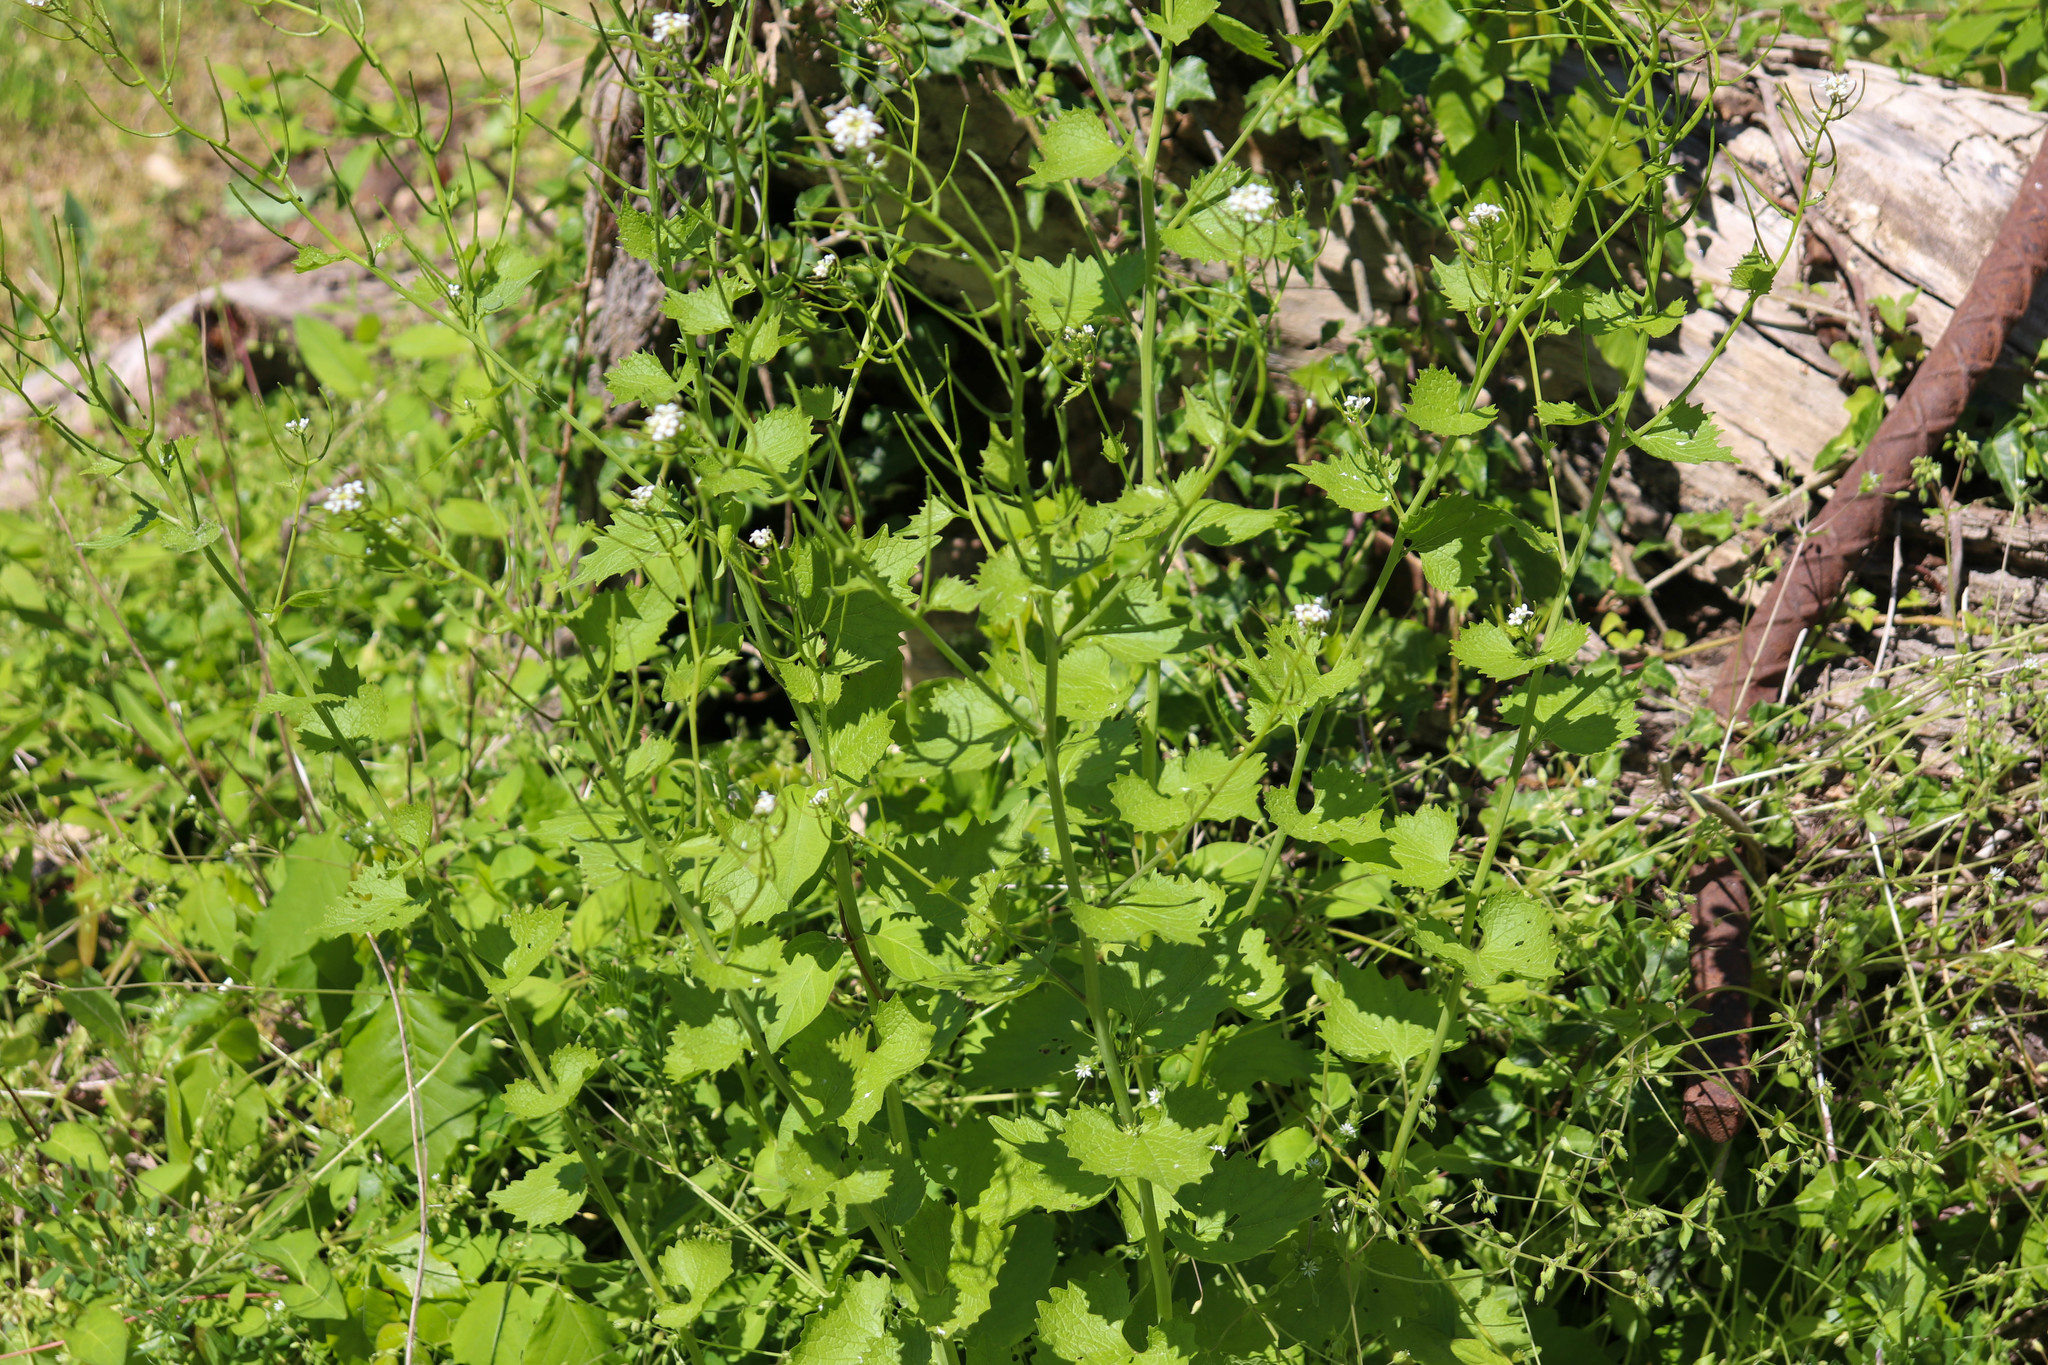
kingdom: Plantae
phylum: Tracheophyta
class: Magnoliopsida
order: Brassicales
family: Brassicaceae
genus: Alliaria
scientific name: Alliaria petiolata
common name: Garlic mustard
